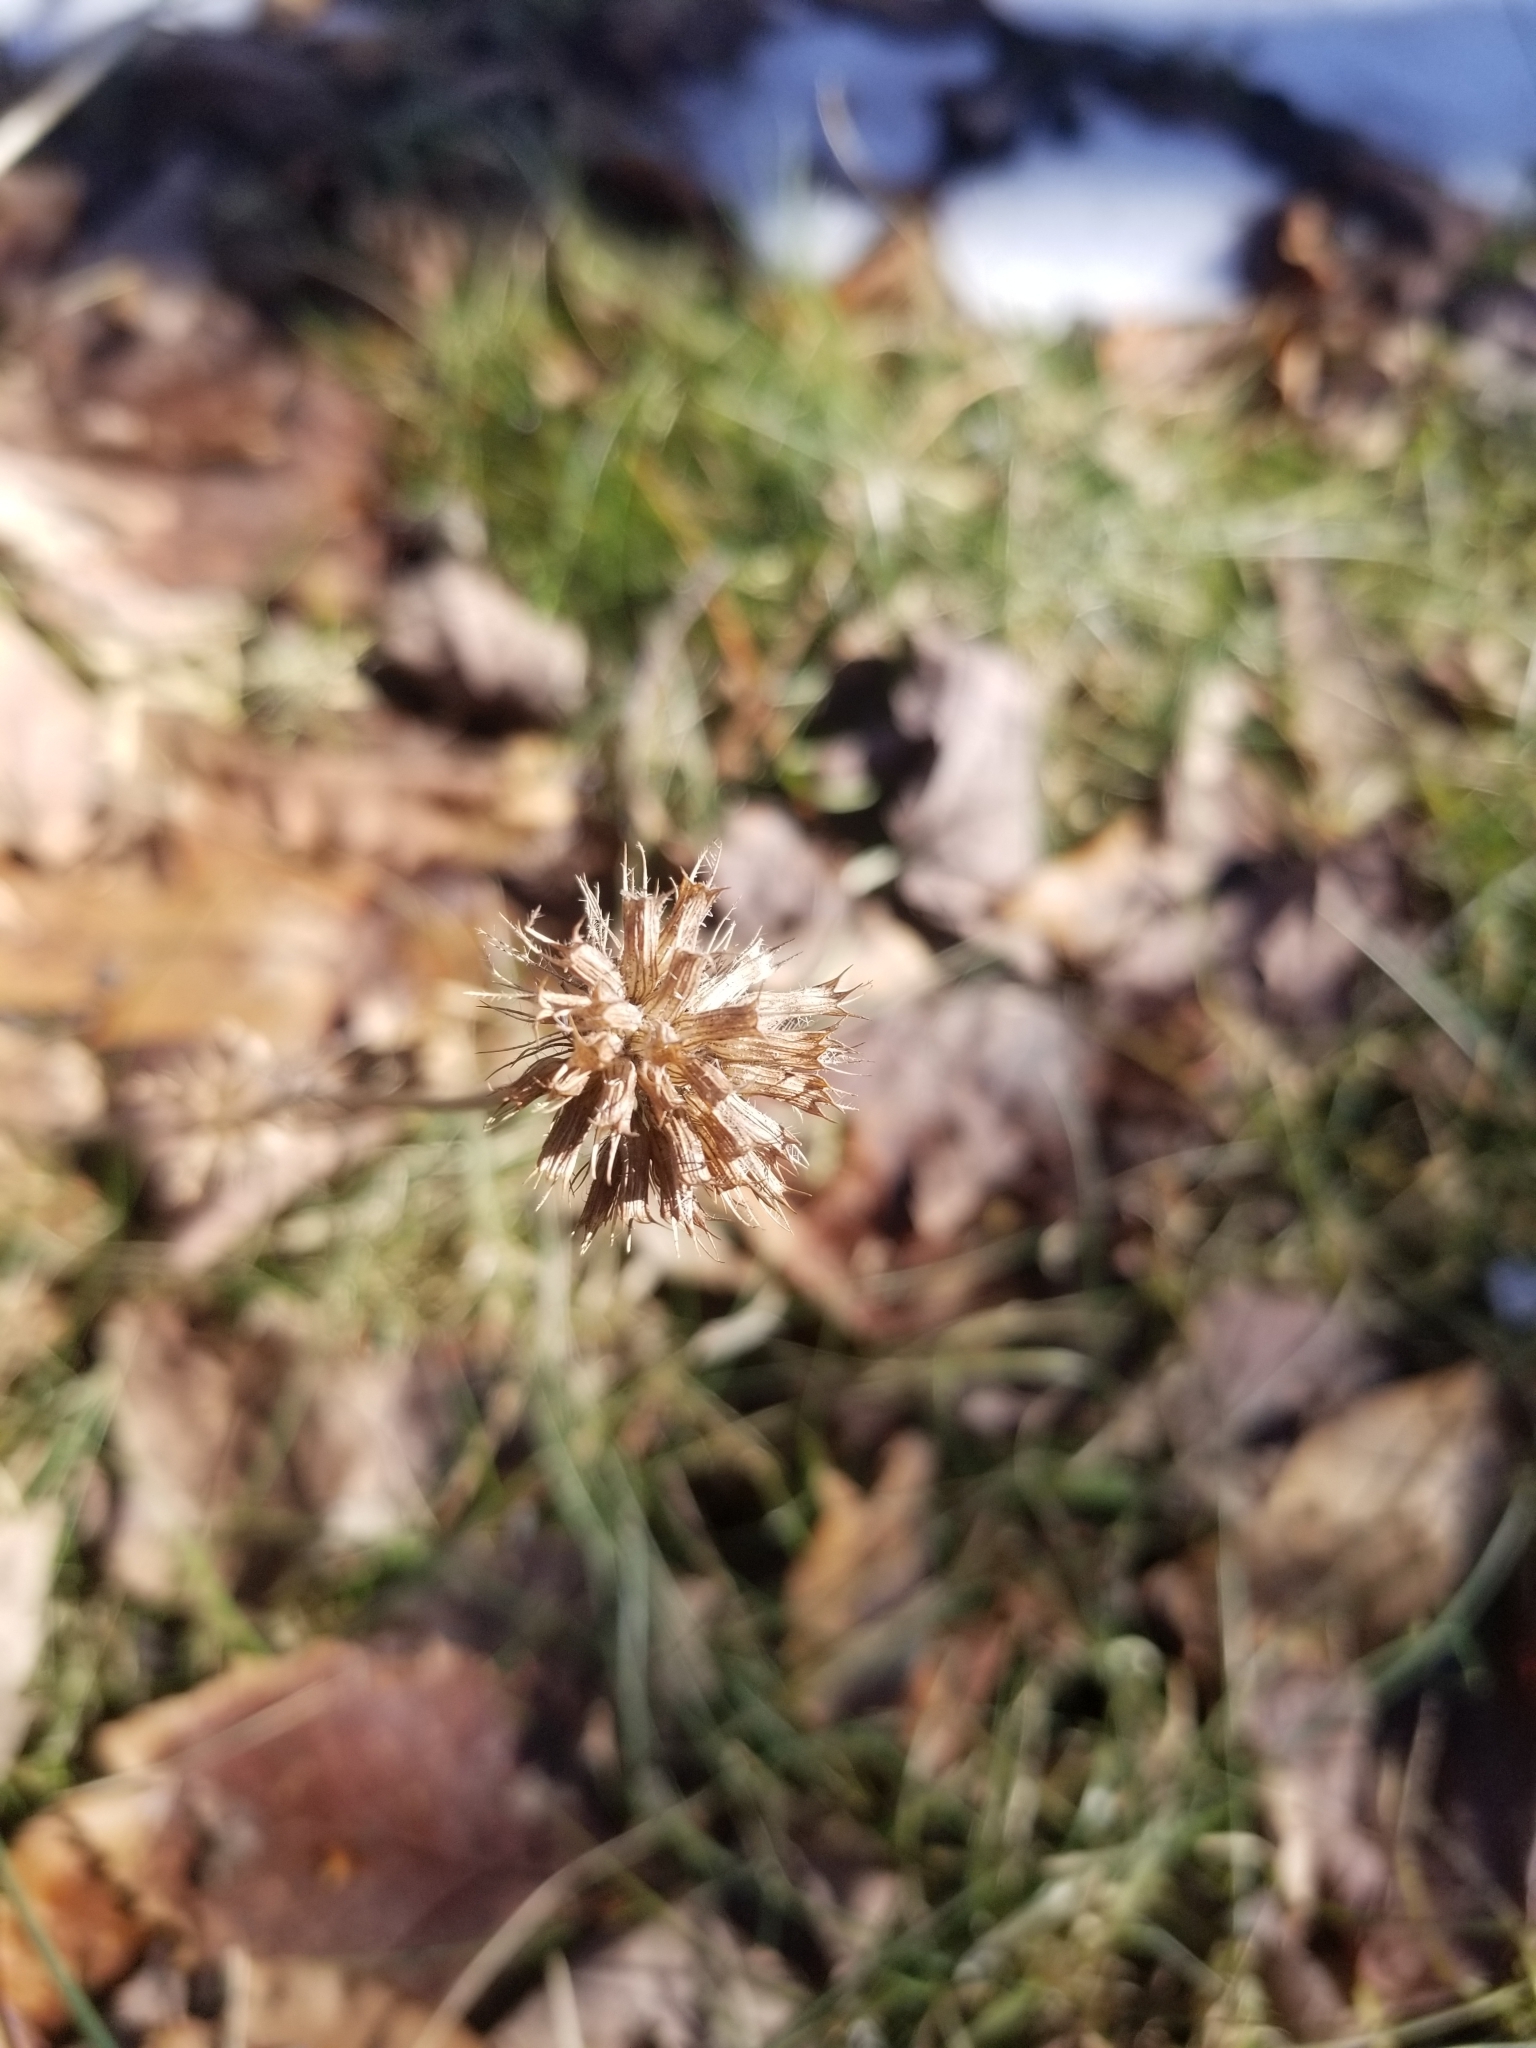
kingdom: Plantae
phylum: Tracheophyta
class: Magnoliopsida
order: Lamiales
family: Lamiaceae
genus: Clinopodium
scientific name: Clinopodium vulgare
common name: Wild basil
